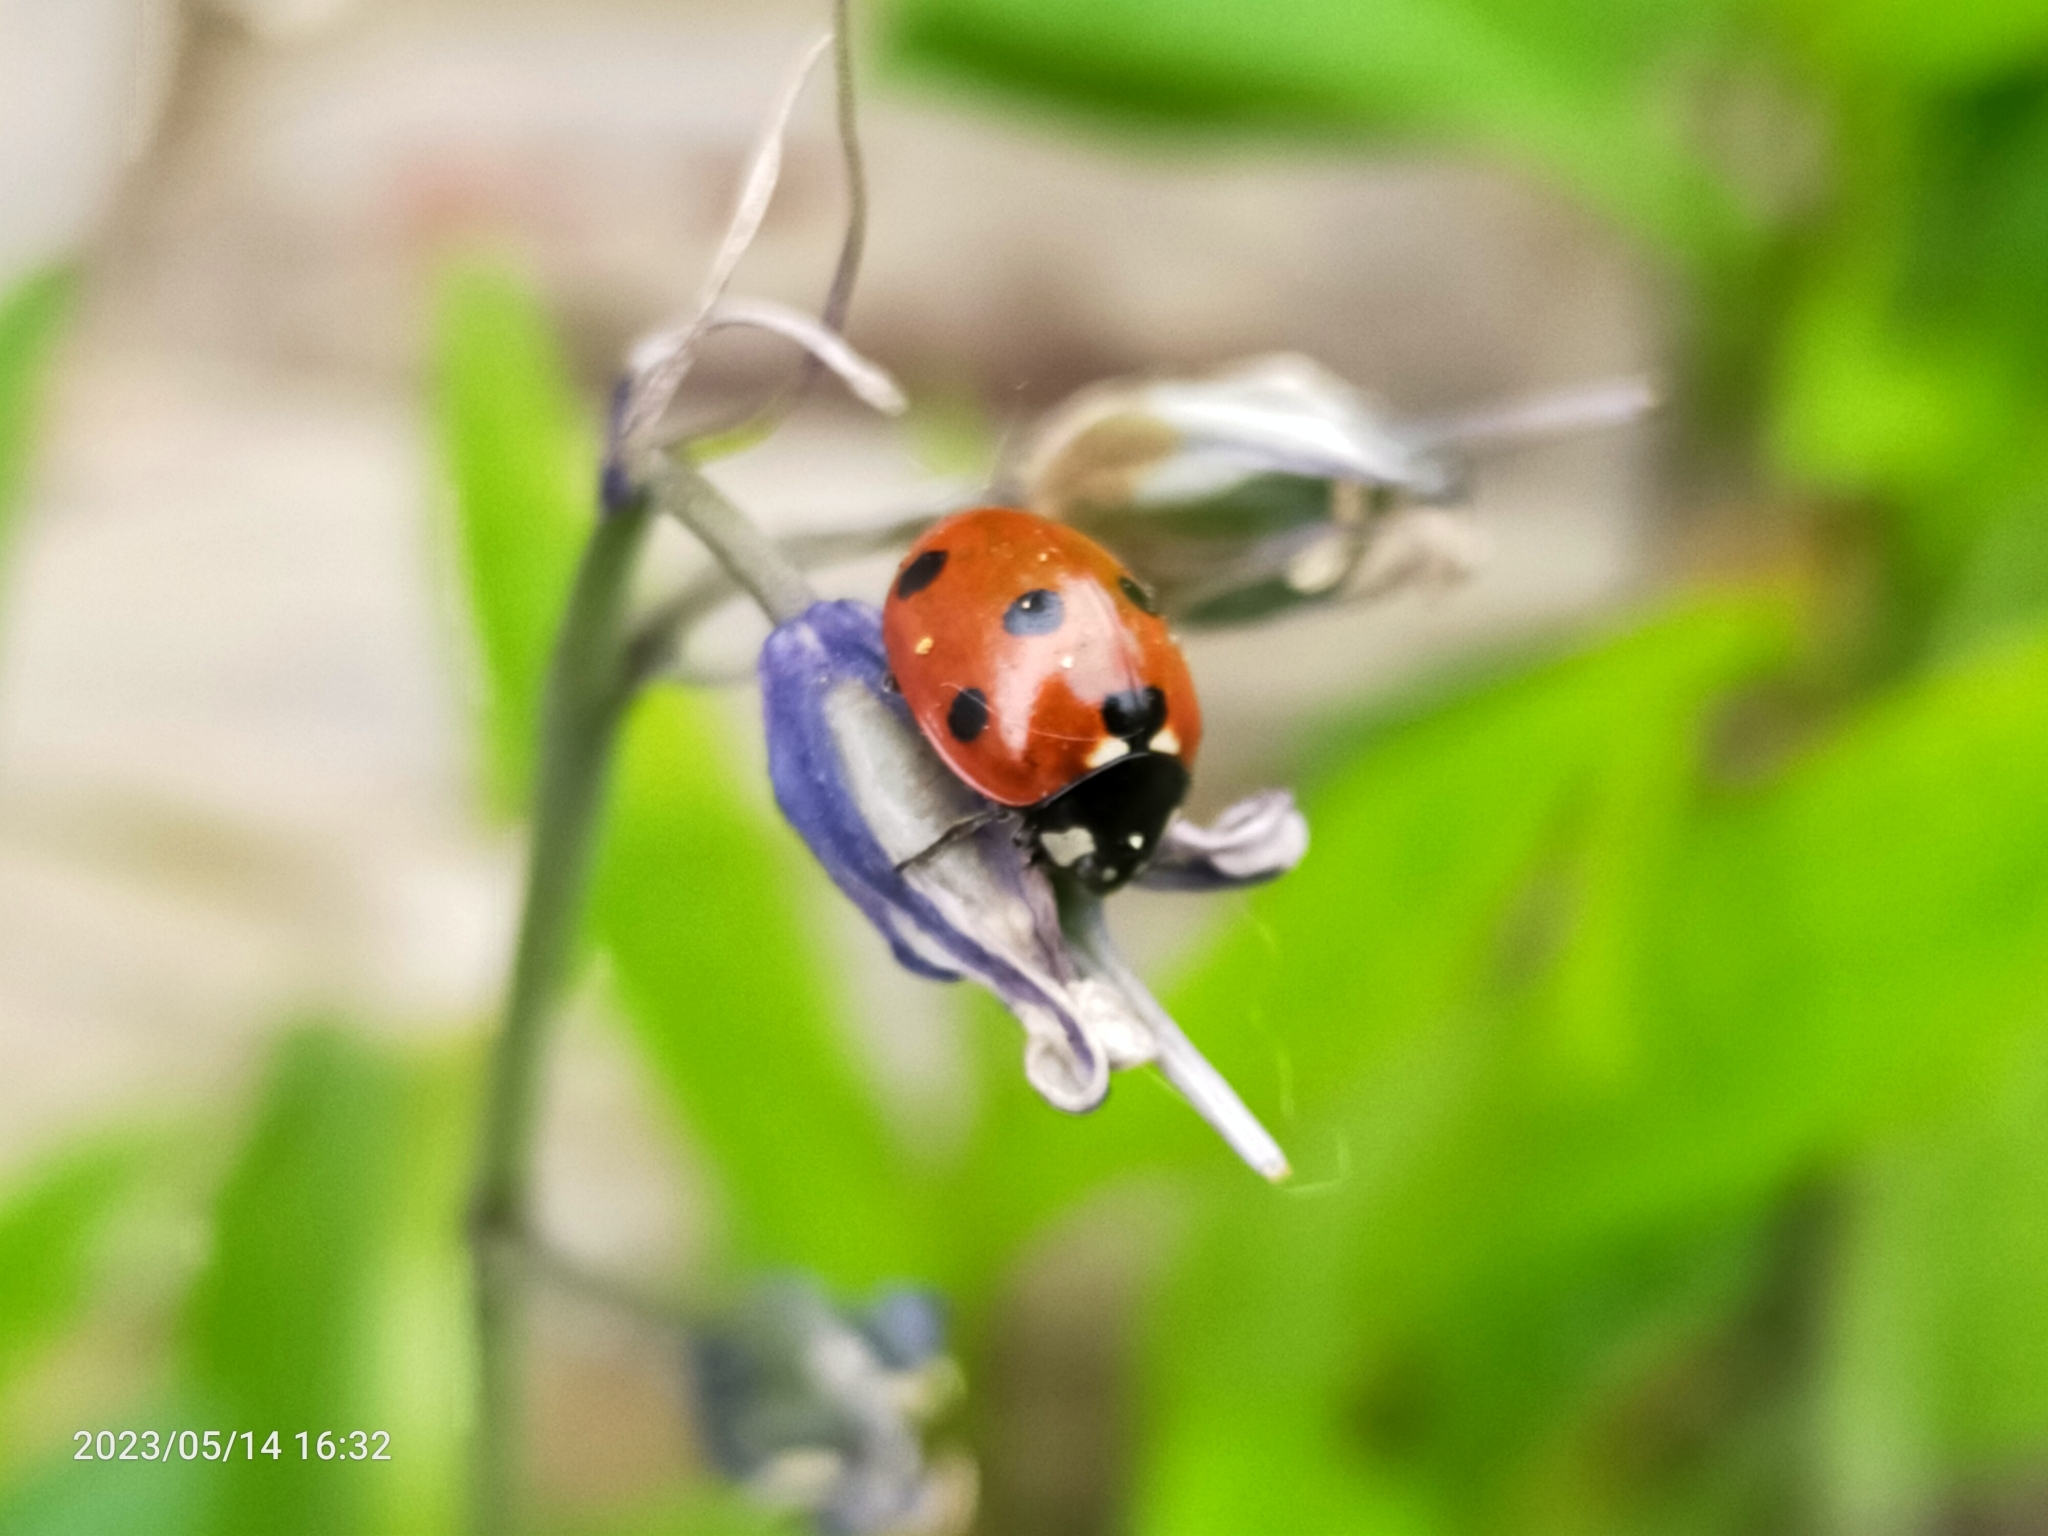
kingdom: Animalia
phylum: Arthropoda
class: Insecta
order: Coleoptera
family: Coccinellidae
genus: Coccinella
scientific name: Coccinella septempunctata
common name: Sevenspotted lady beetle
